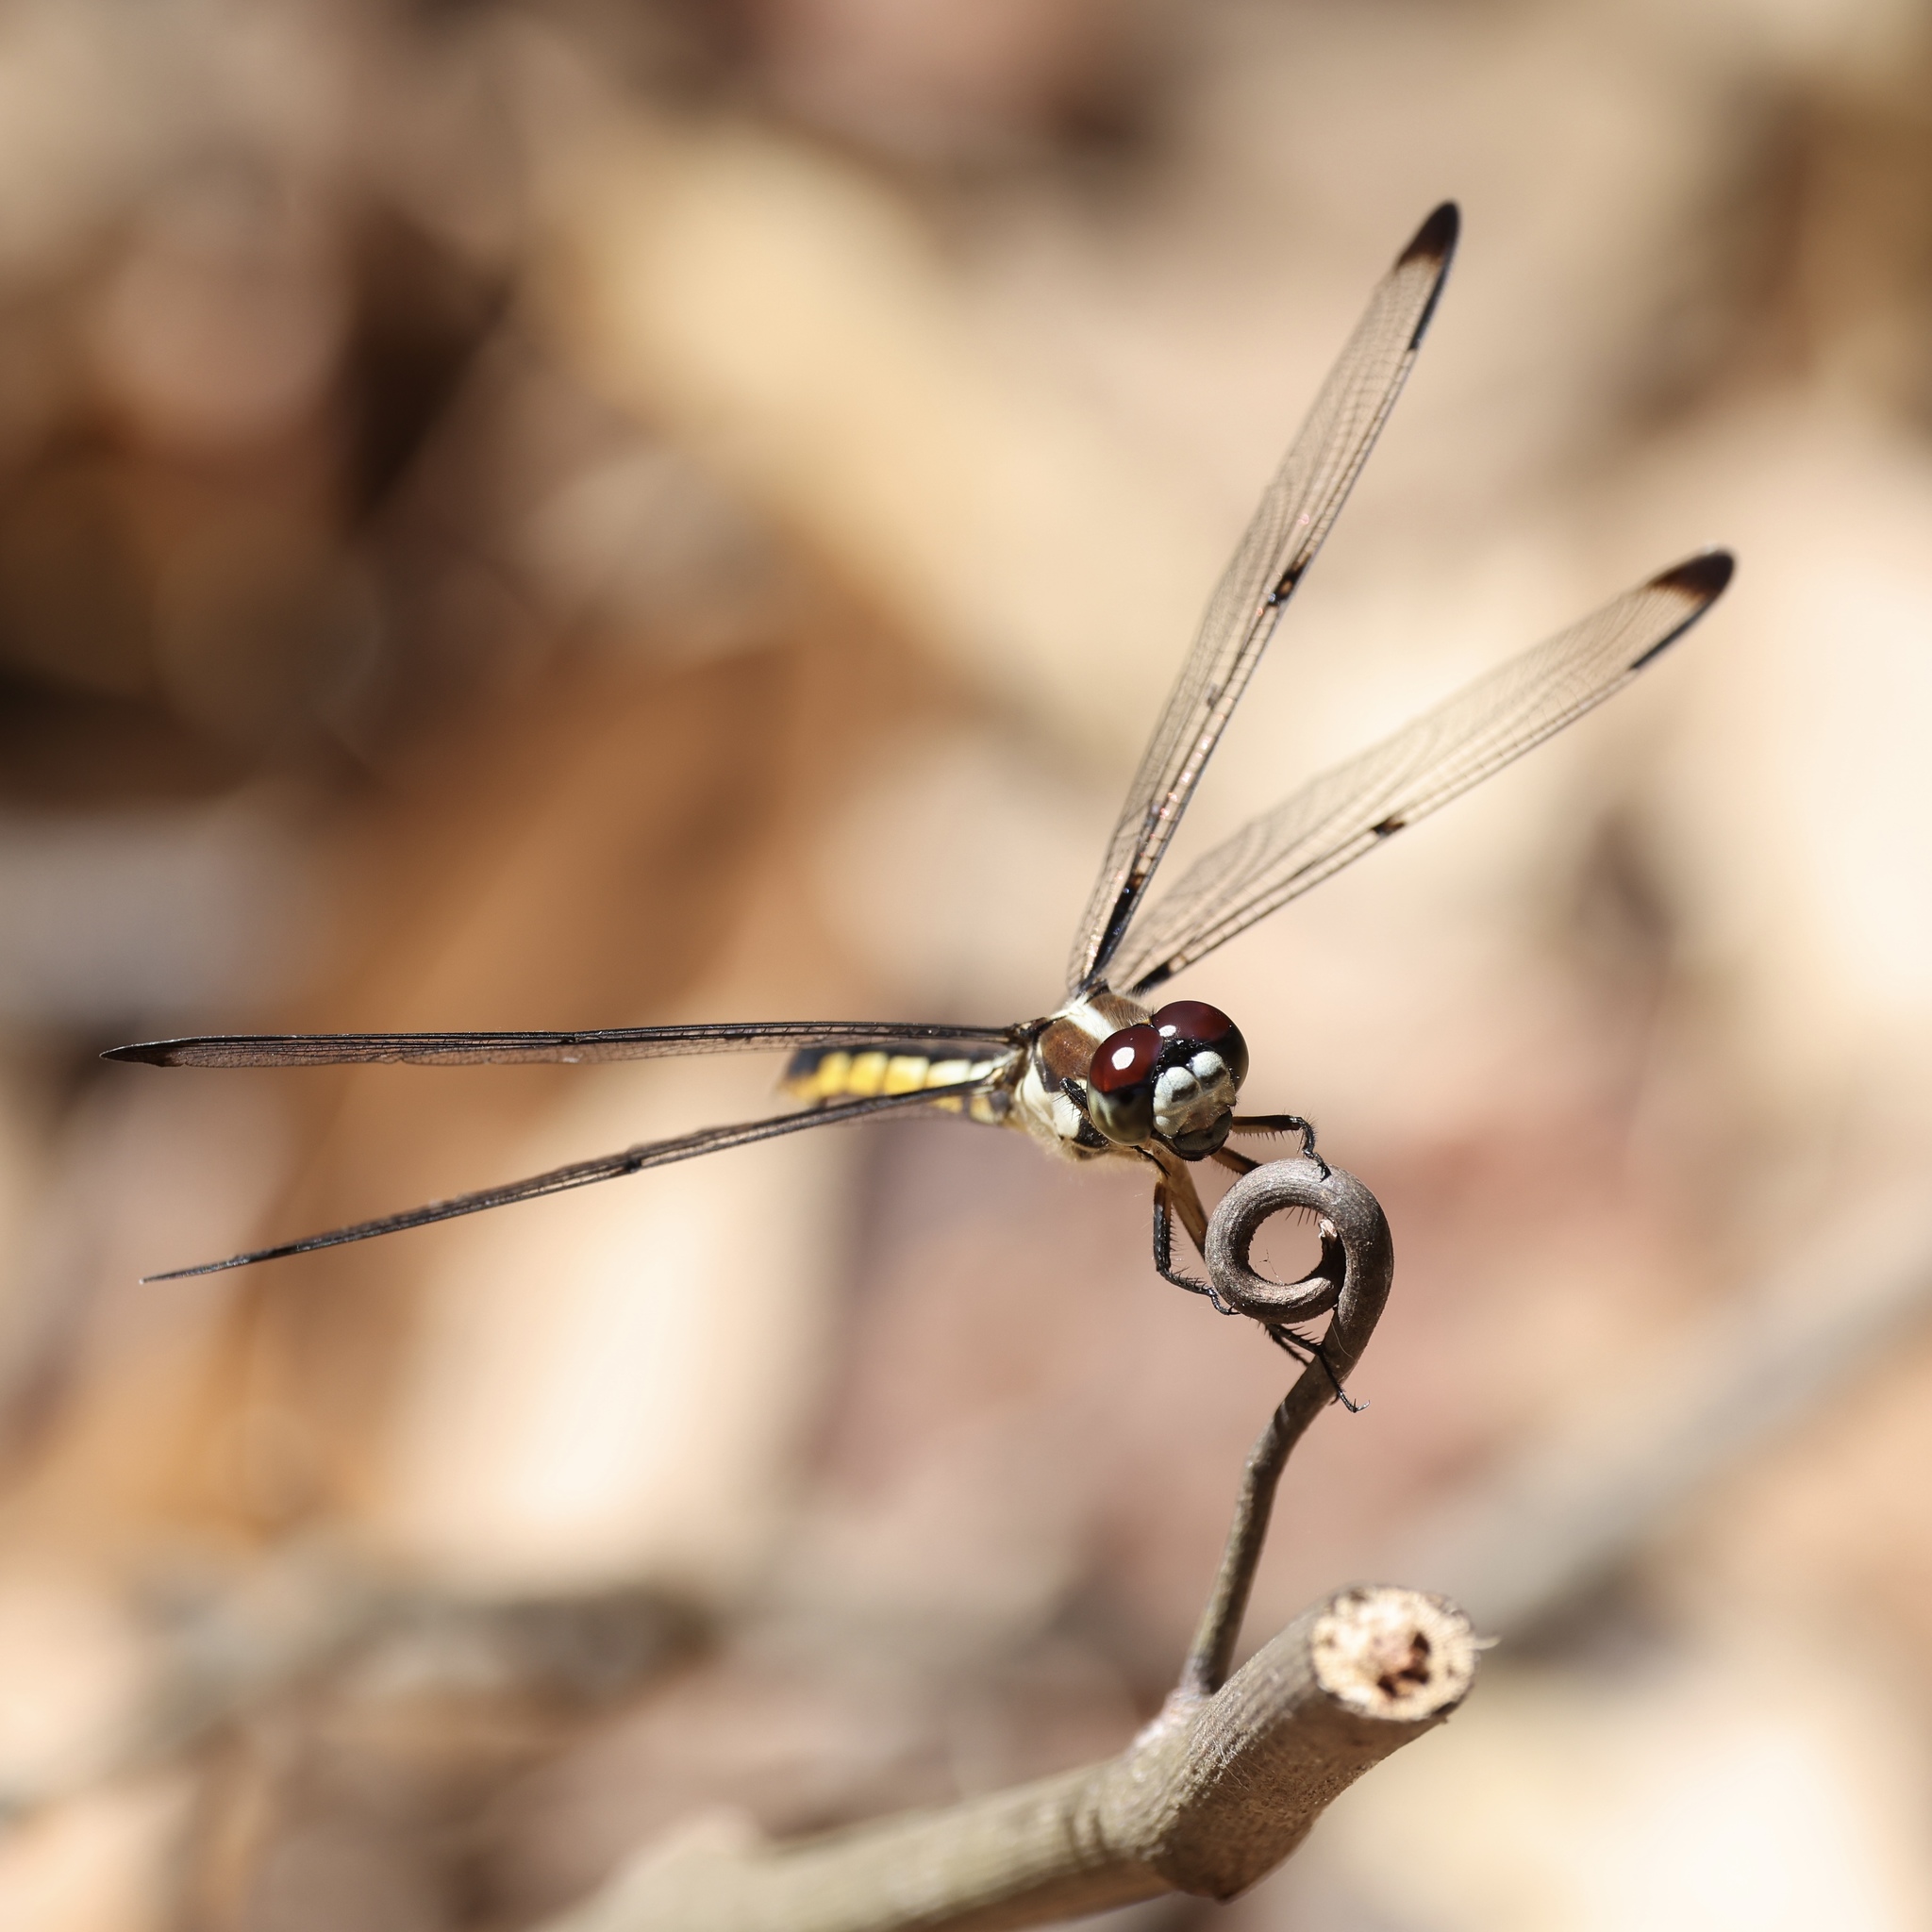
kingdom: Animalia
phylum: Arthropoda
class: Insecta
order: Odonata
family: Libellulidae
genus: Libellula
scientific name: Libellula vibrans
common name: Great blue skimmer
